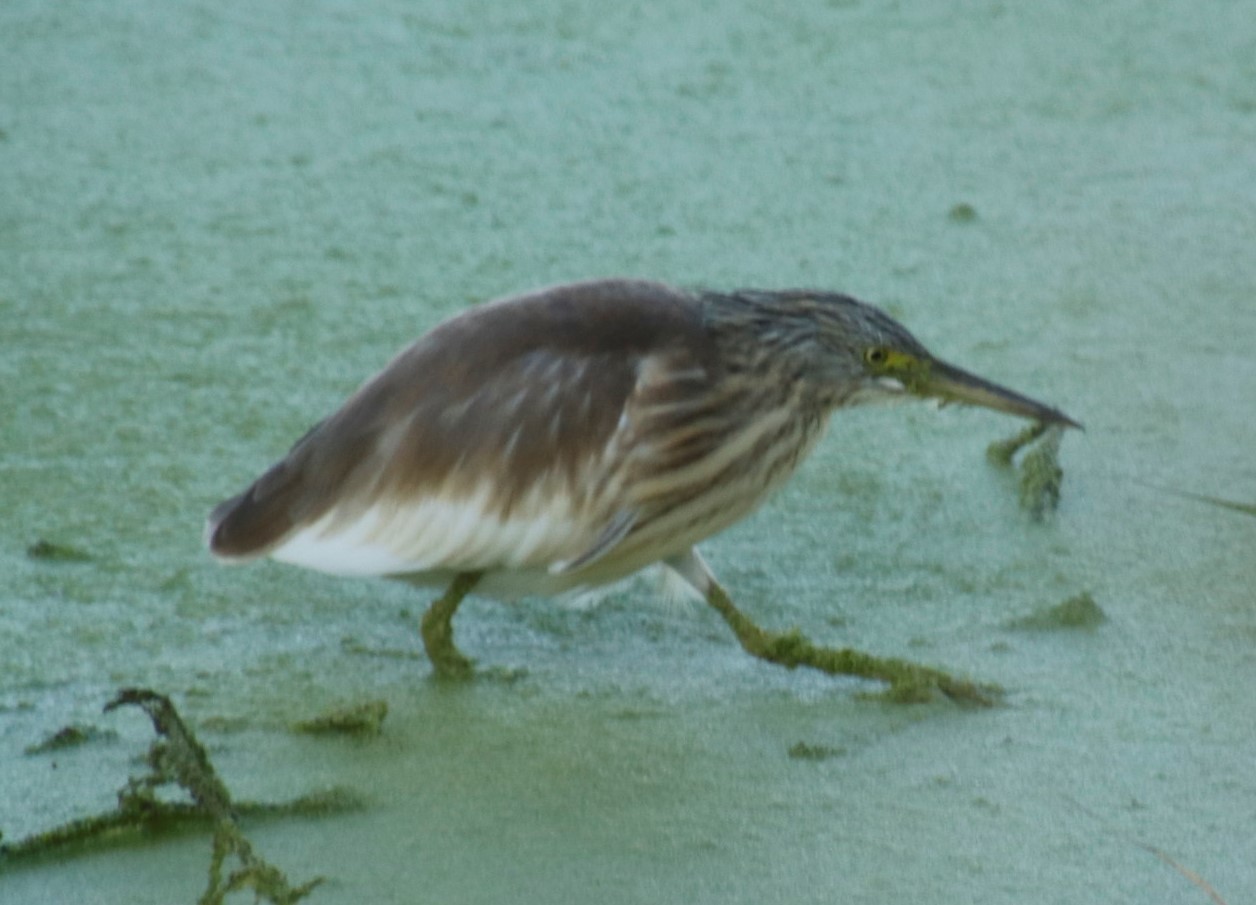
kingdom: Animalia
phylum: Chordata
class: Aves
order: Pelecaniformes
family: Ardeidae
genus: Ardeola
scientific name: Ardeola ralloides
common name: Squacco heron
